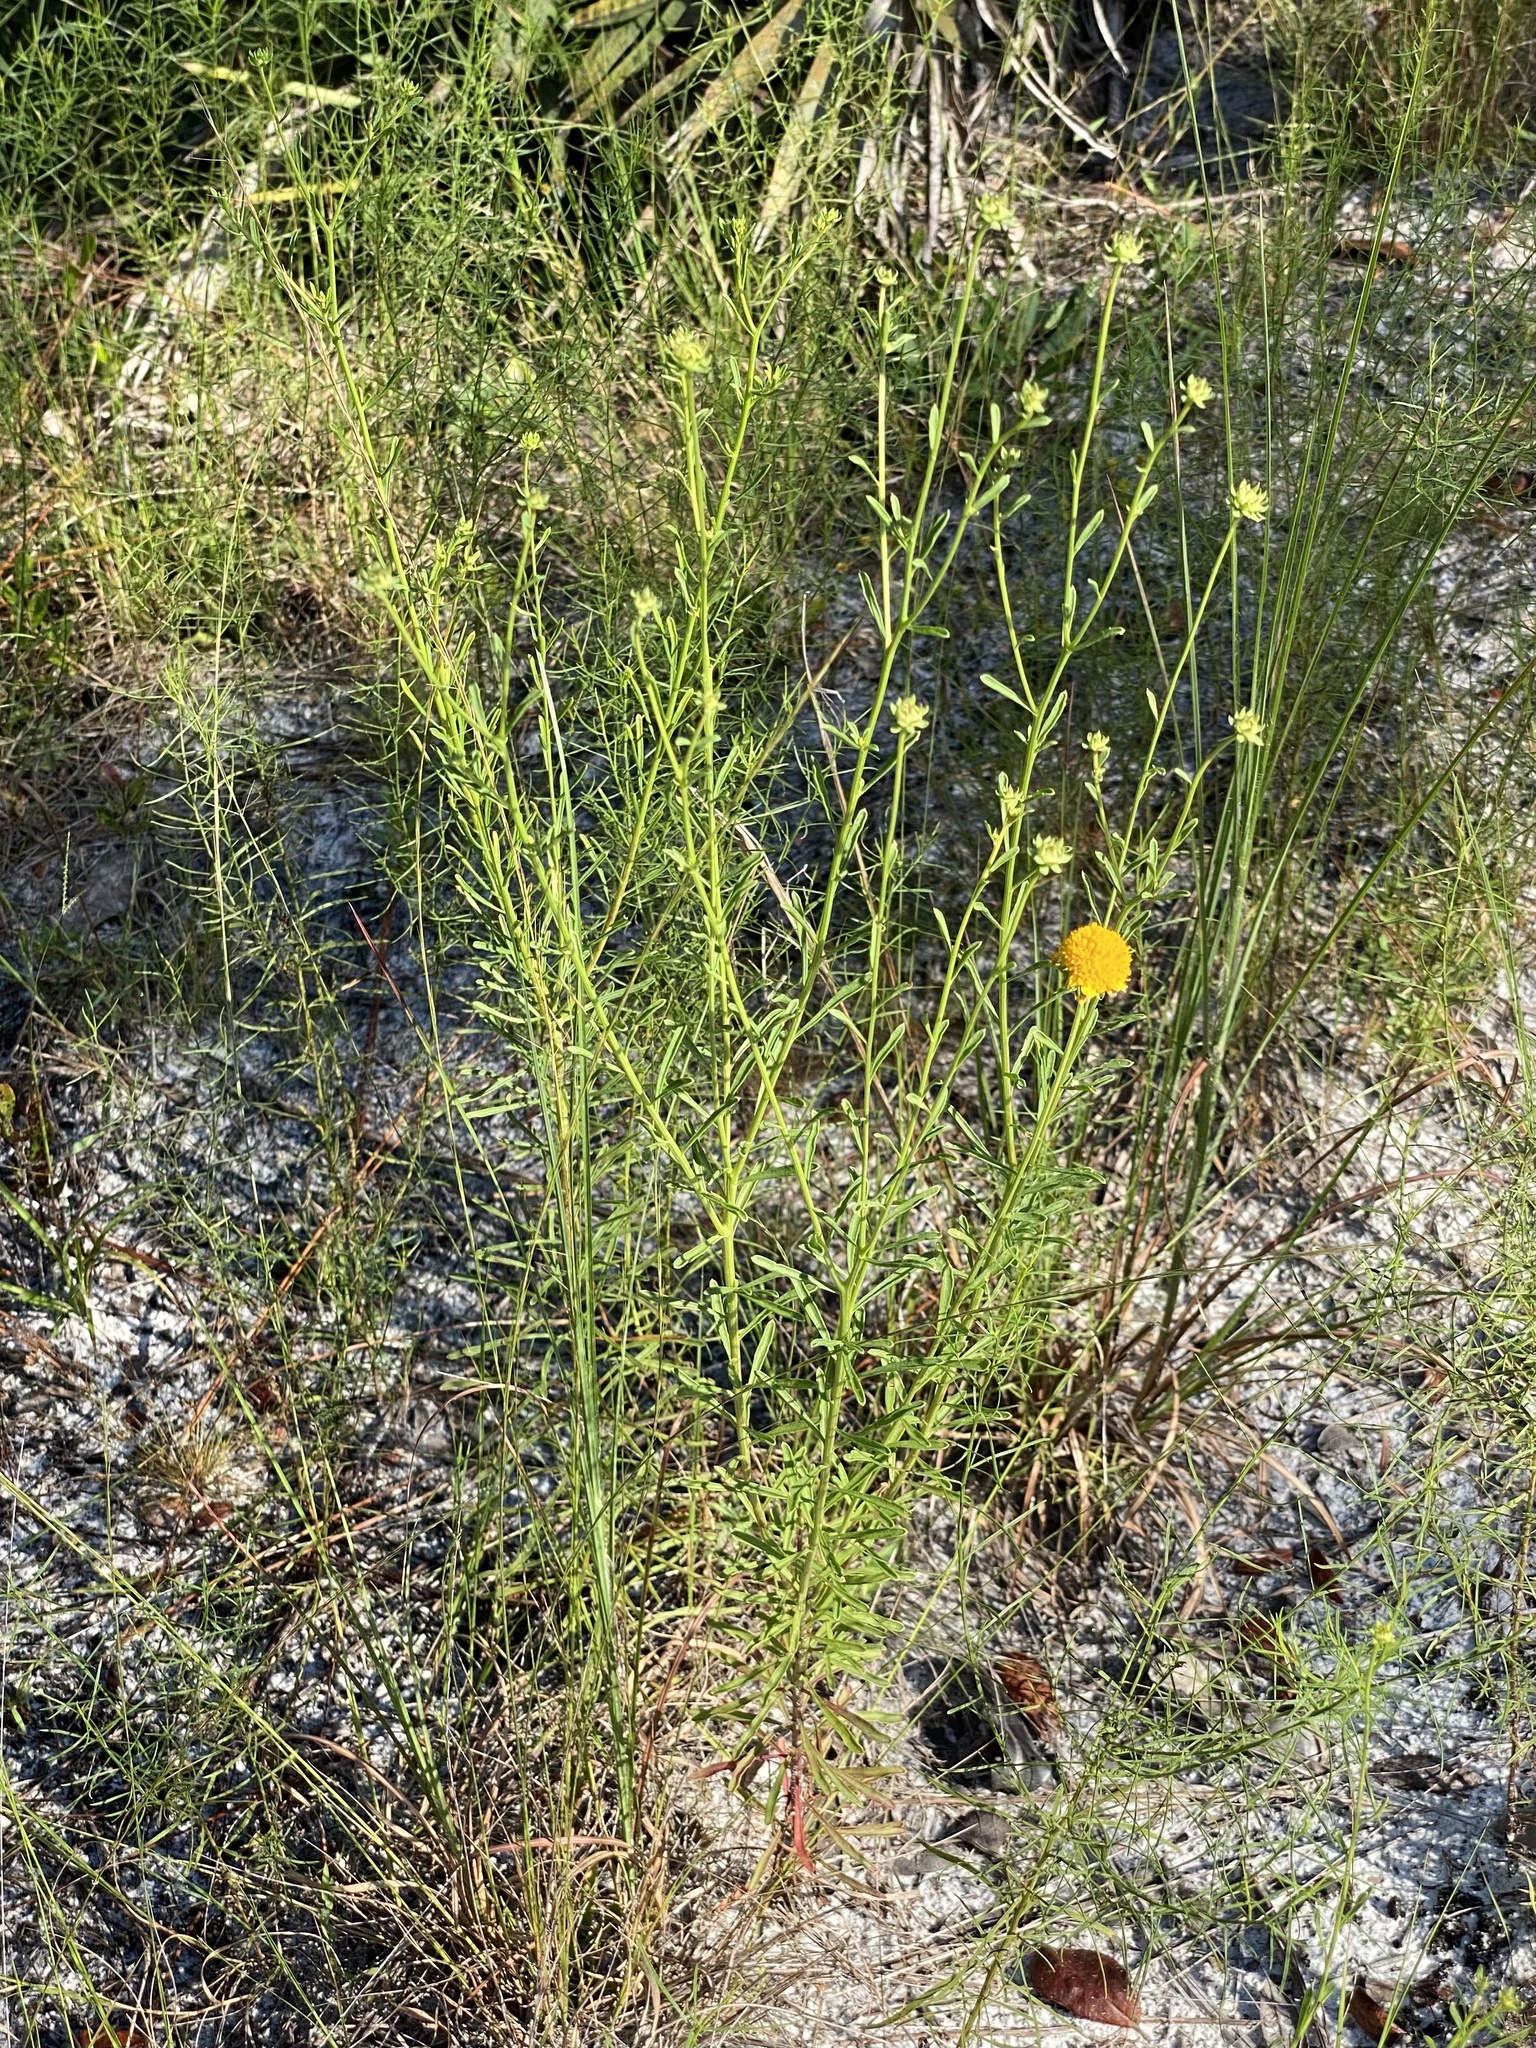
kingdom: Plantae
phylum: Tracheophyta
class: Magnoliopsida
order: Asterales
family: Asteraceae
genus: Balduina
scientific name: Balduina angustifolia
